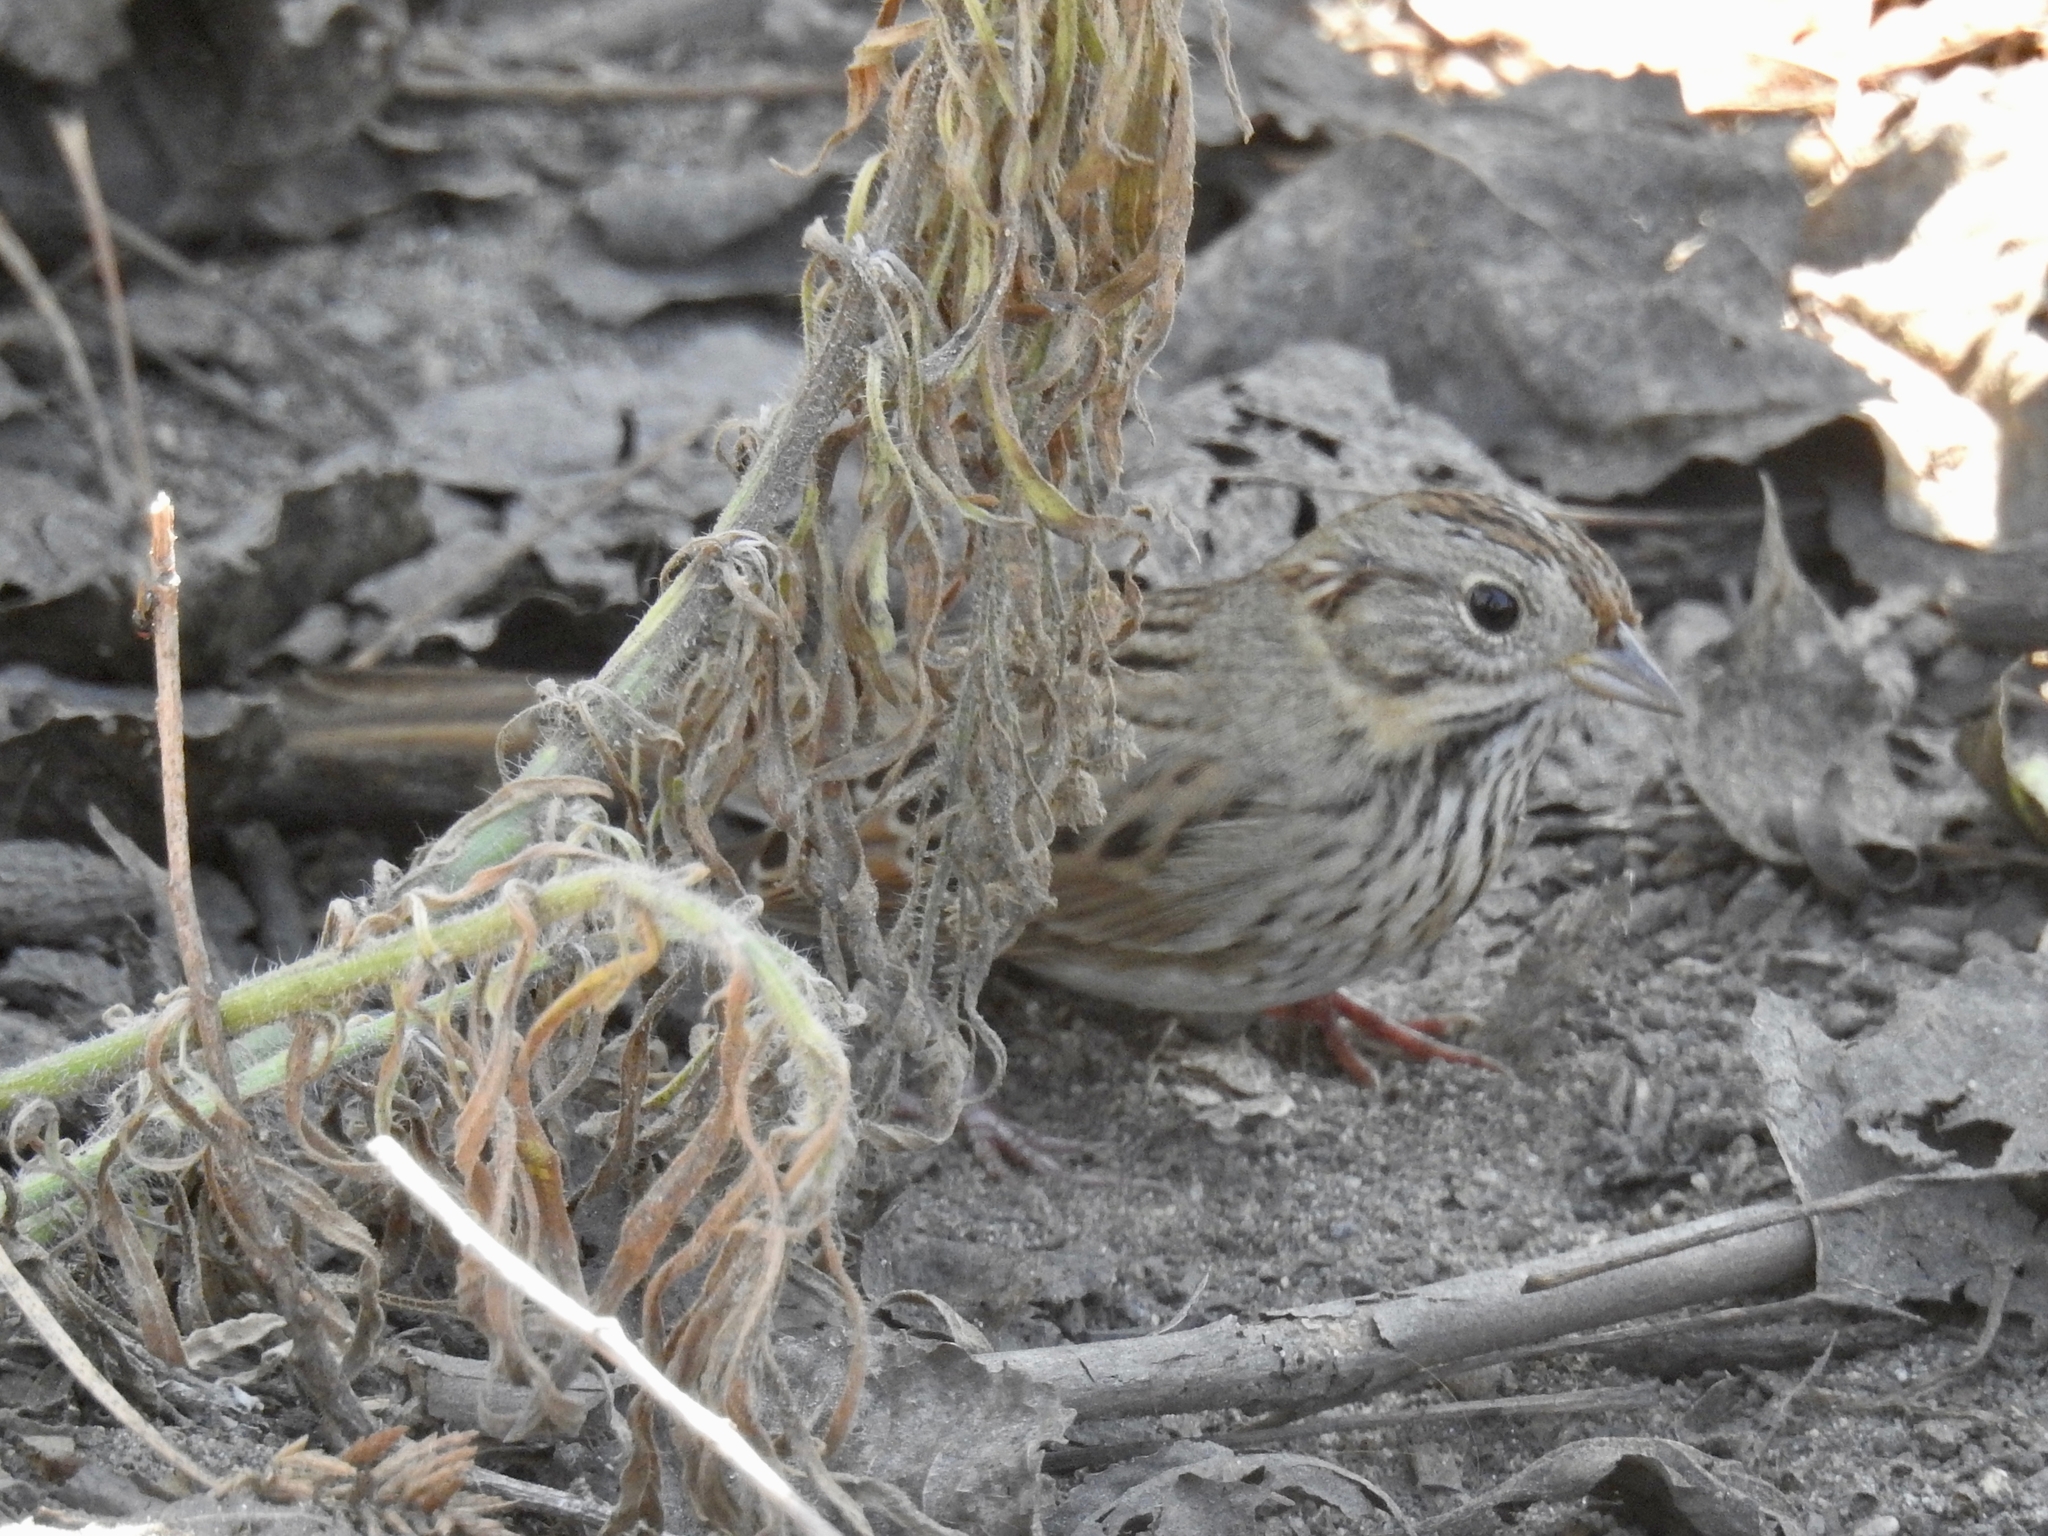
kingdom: Animalia
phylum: Chordata
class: Aves
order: Passeriformes
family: Passerellidae
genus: Melospiza
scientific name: Melospiza lincolnii
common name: Lincoln's sparrow
